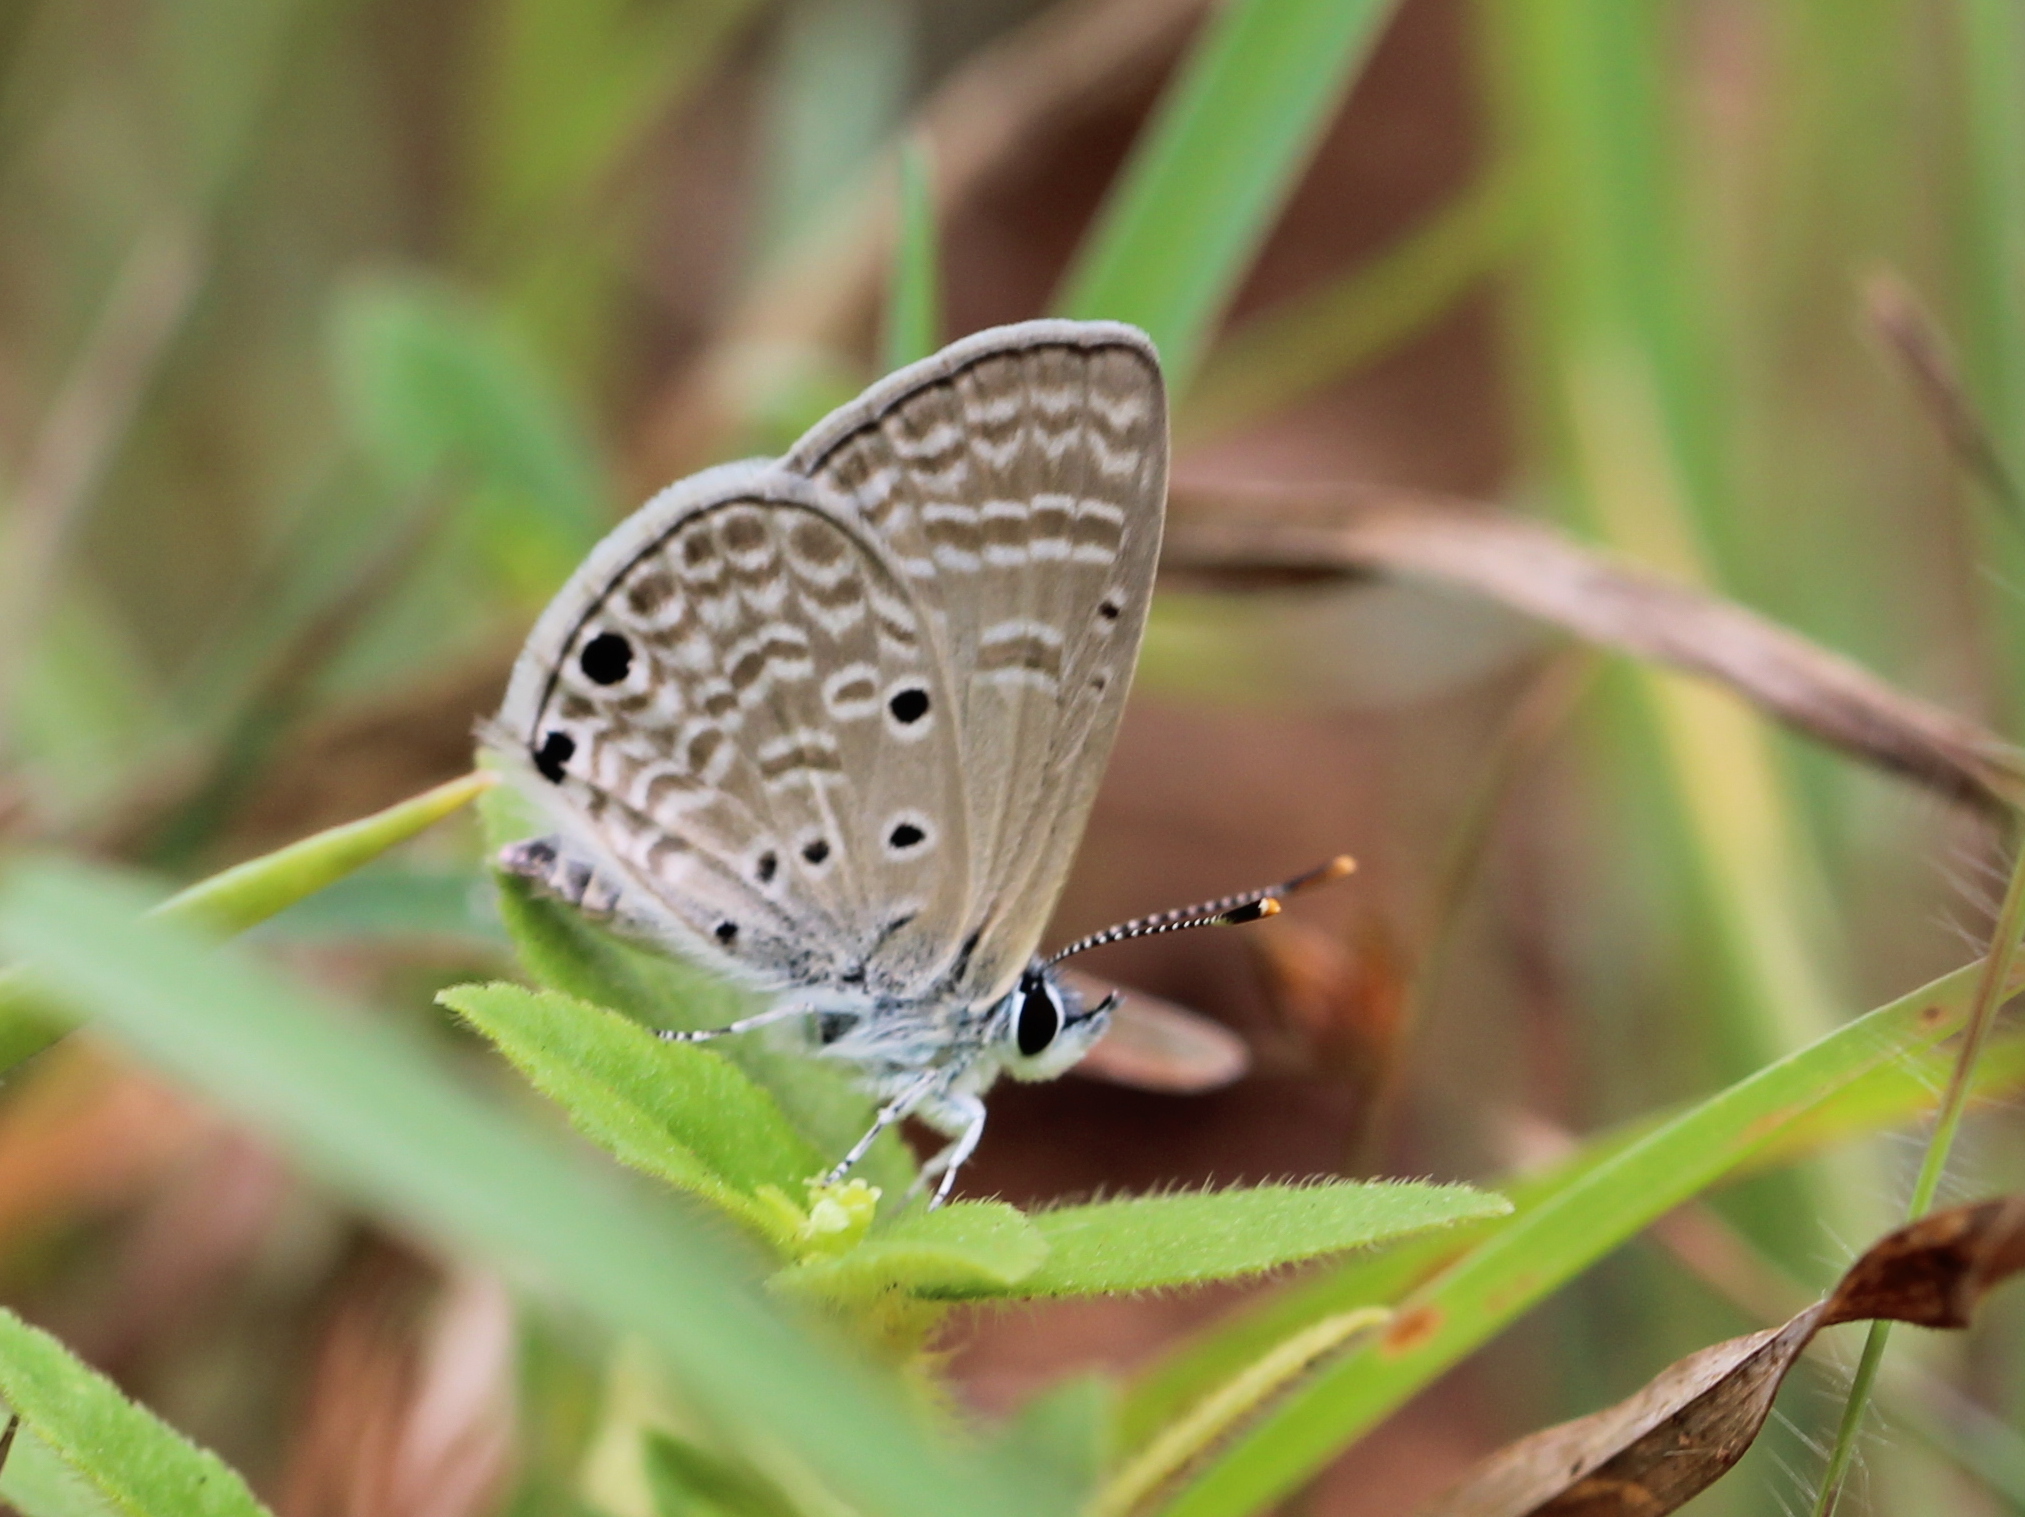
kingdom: Animalia
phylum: Arthropoda
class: Insecta
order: Lepidoptera
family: Lycaenidae
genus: Azanus
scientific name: Azanus ubaldus
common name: Desert babul blue
